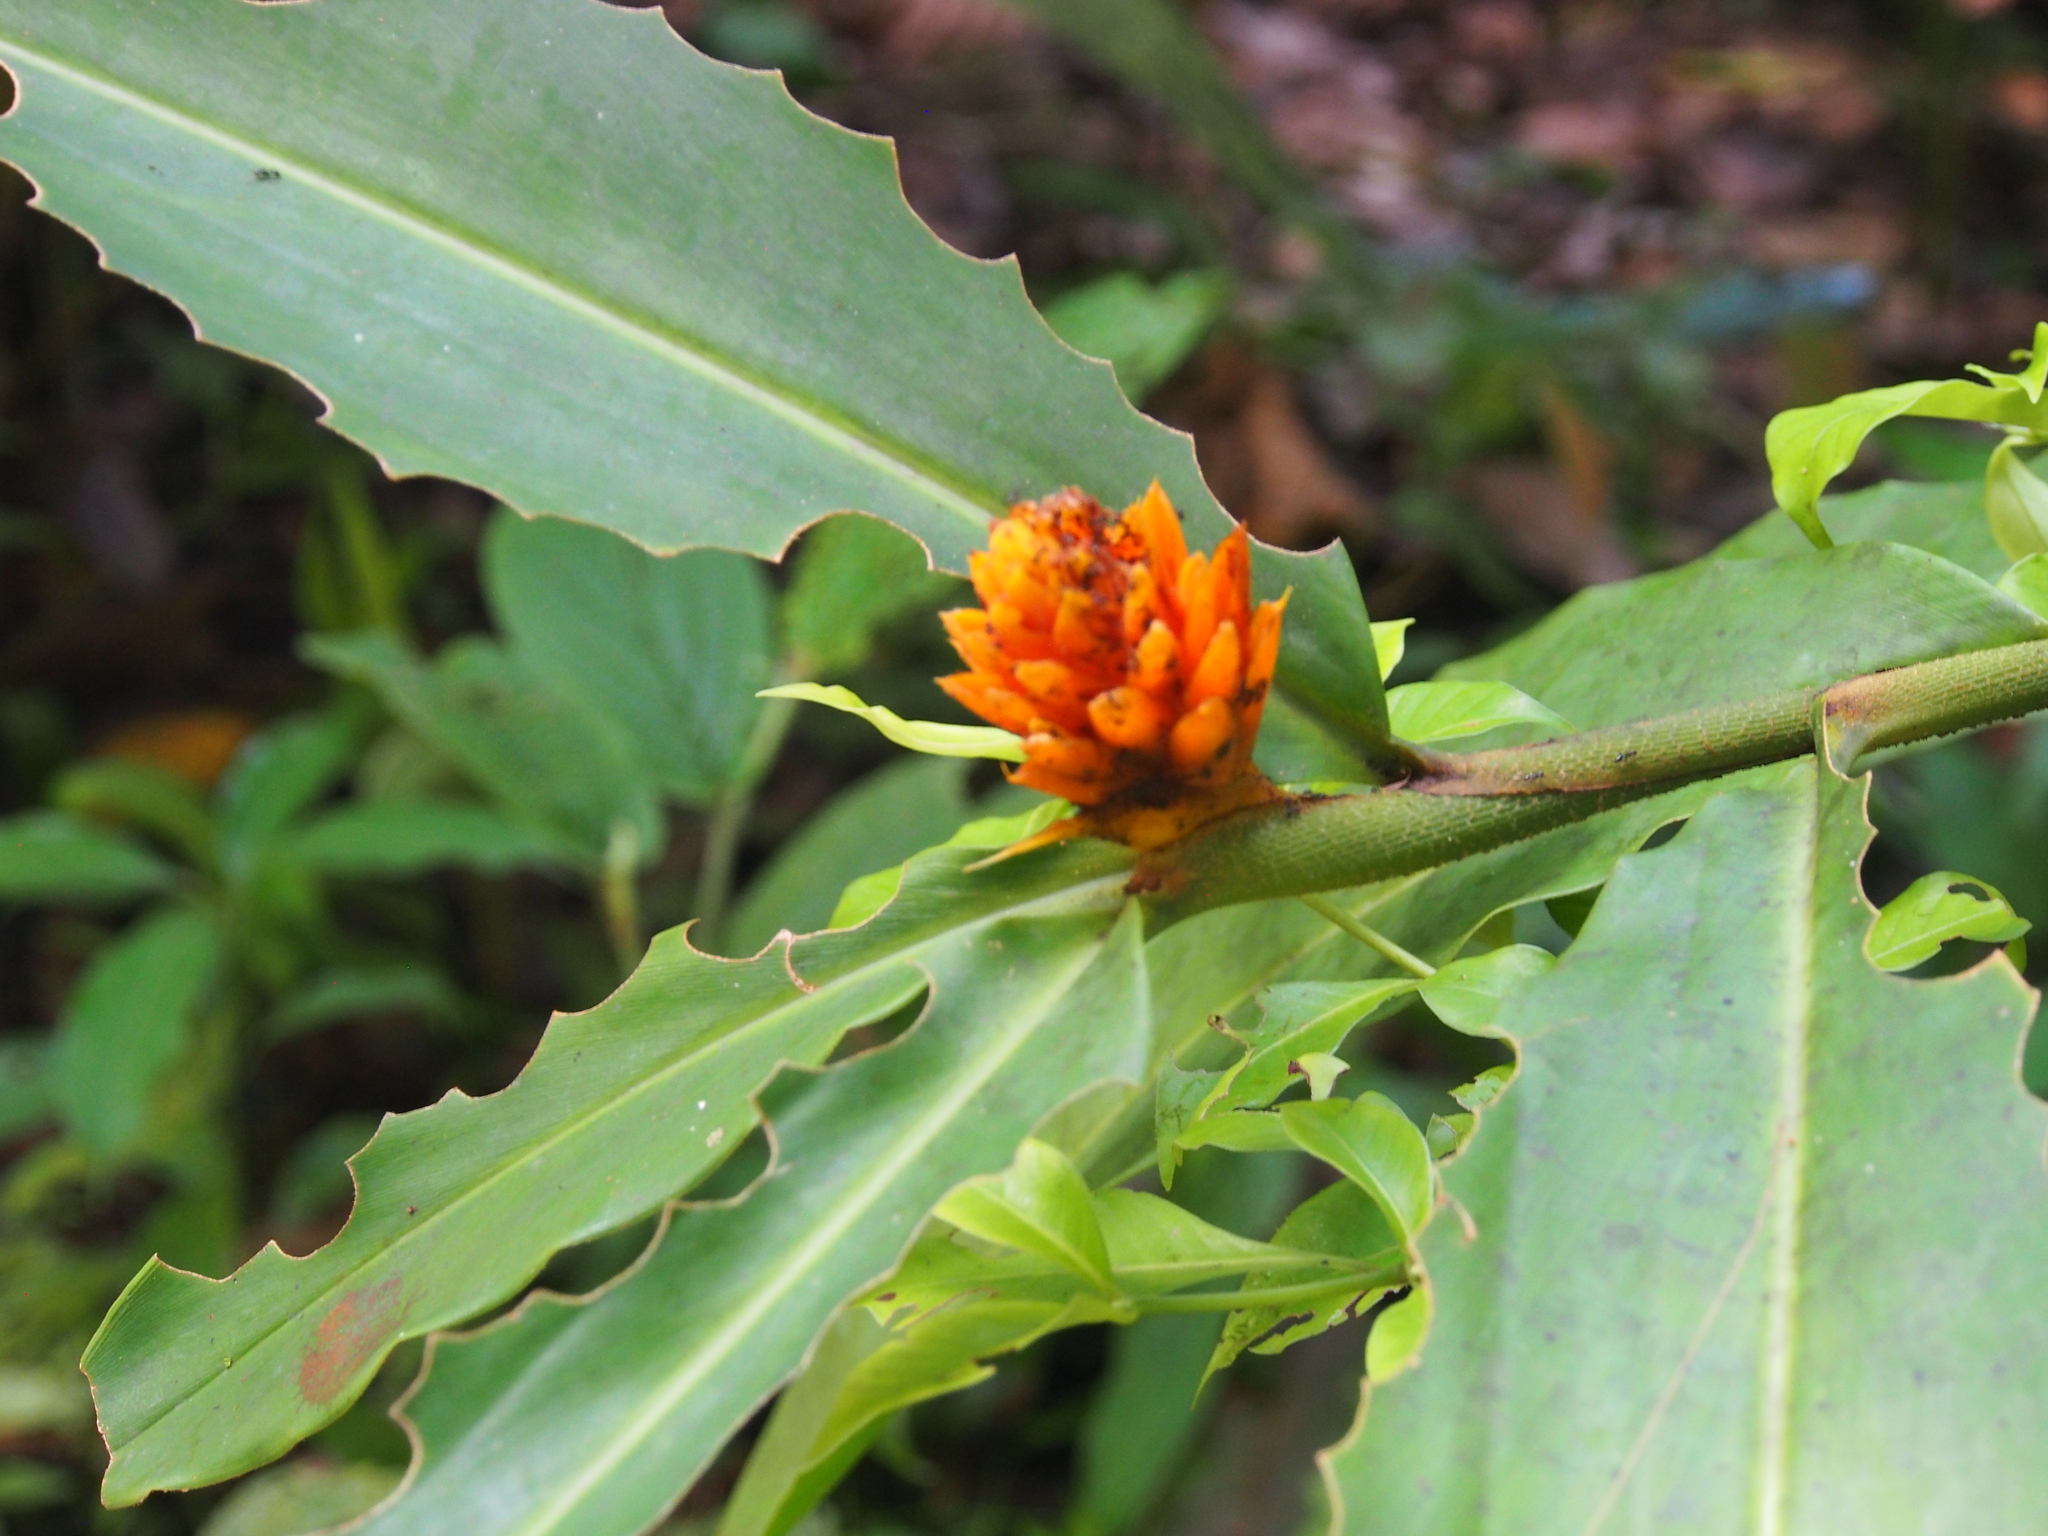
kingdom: Plantae
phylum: Tracheophyta
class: Liliopsida
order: Zingiberales
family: Zingiberaceae
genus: Renealmia
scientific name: Renealmia cernua
